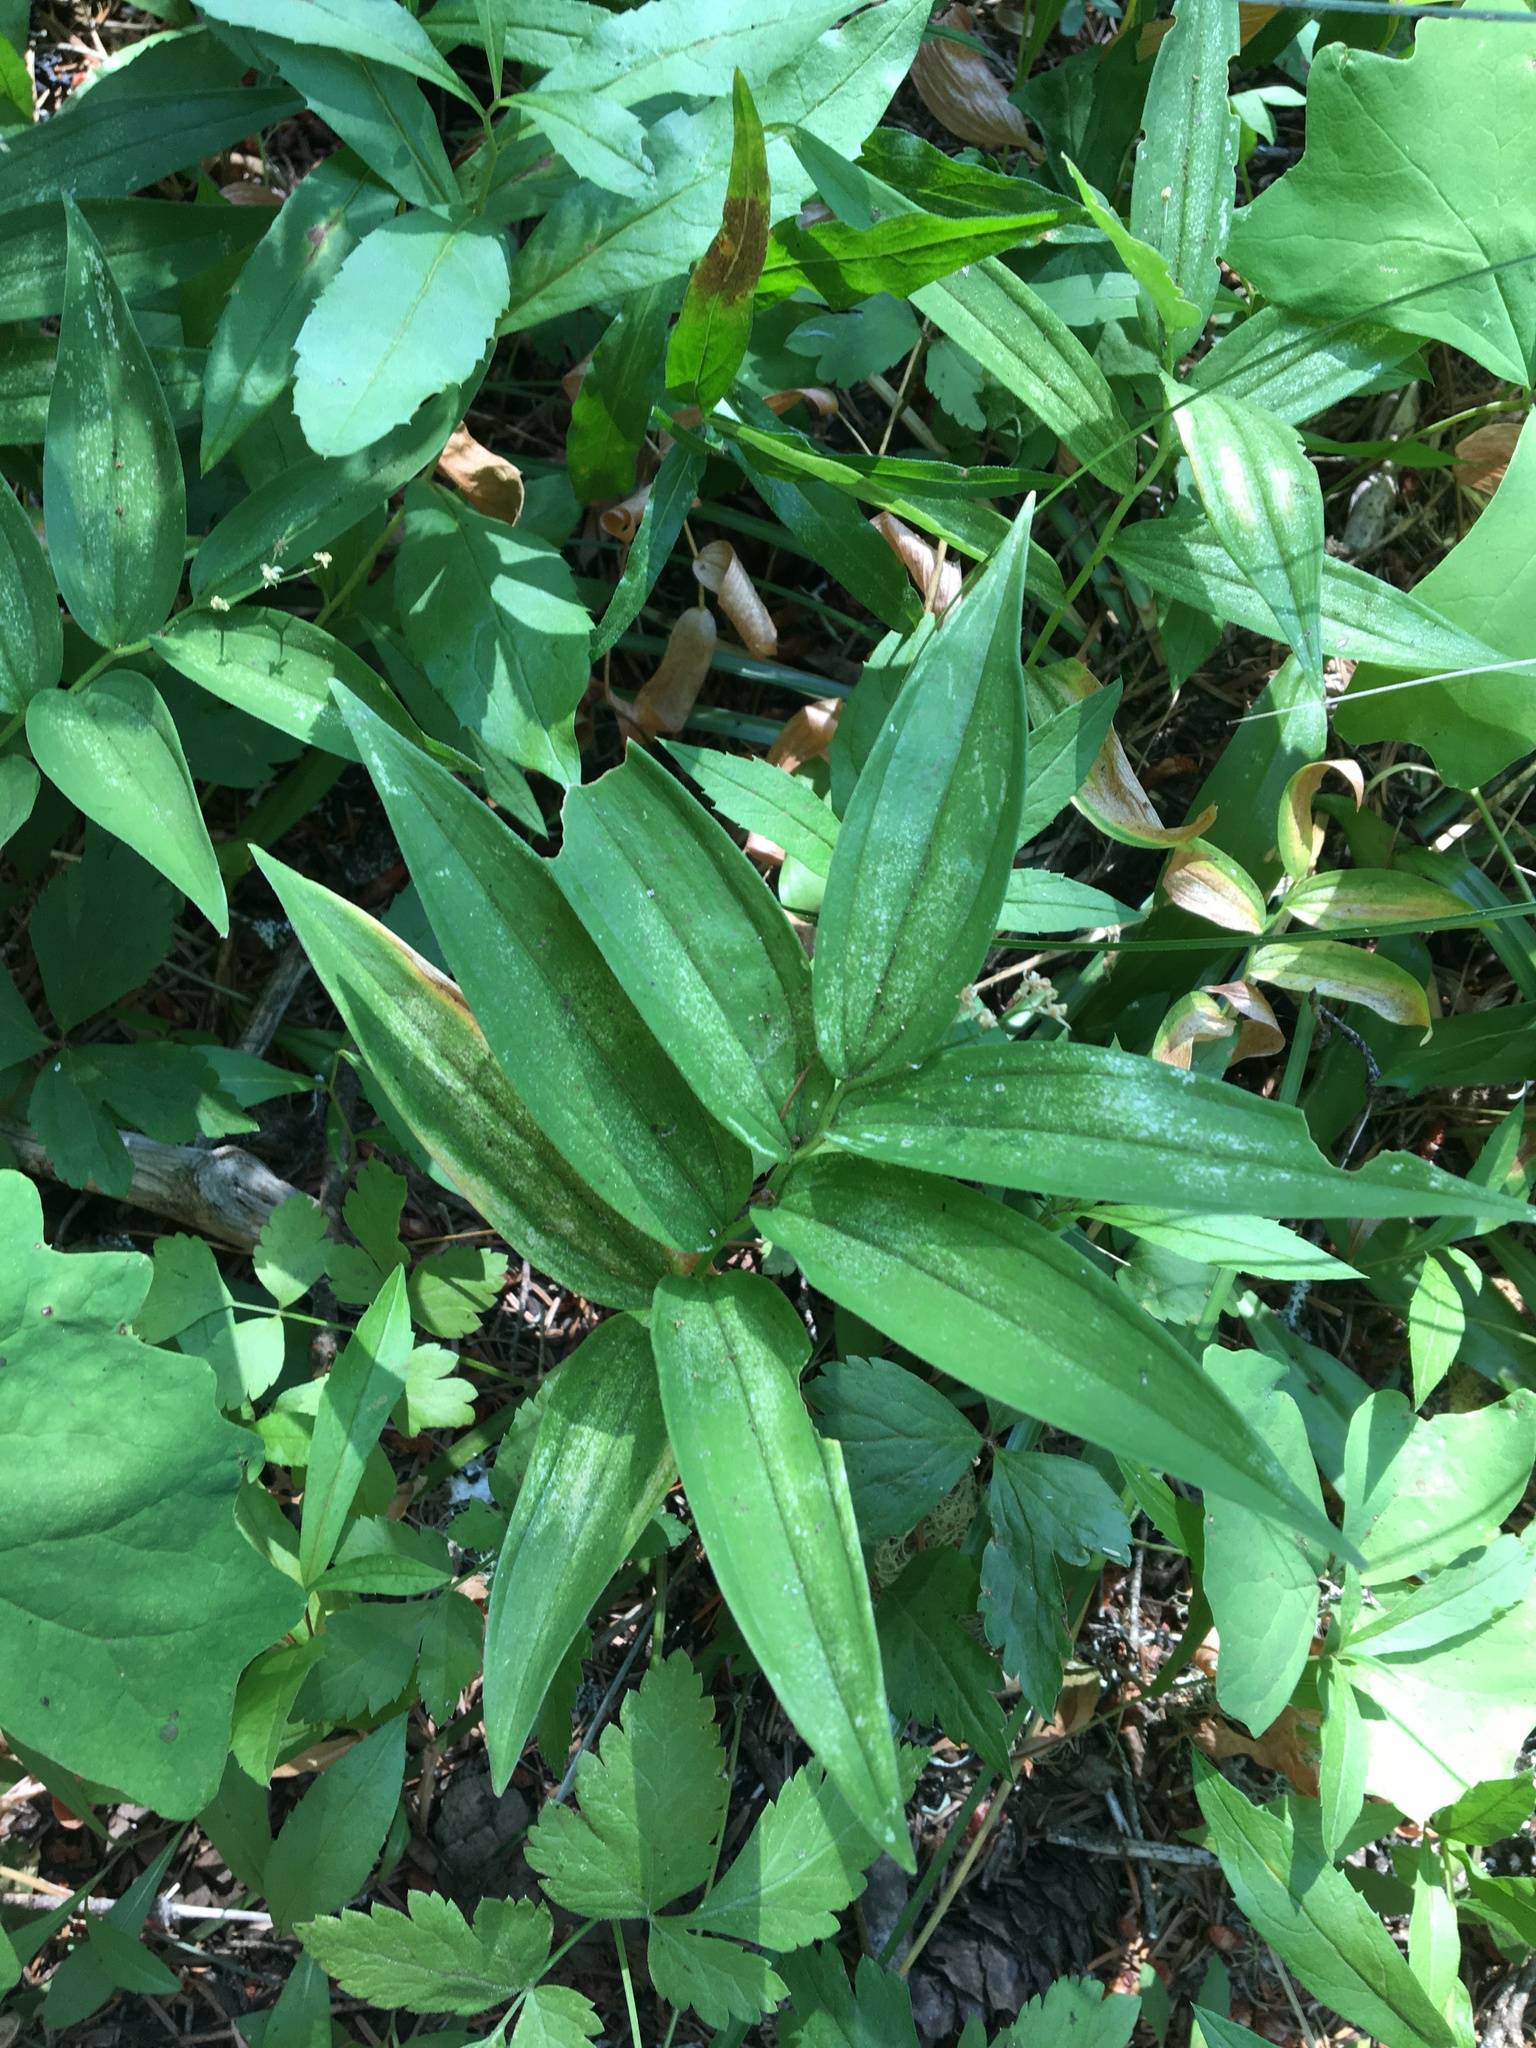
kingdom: Plantae
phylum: Tracheophyta
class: Liliopsida
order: Asparagales
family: Asparagaceae
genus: Maianthemum
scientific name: Maianthemum stellatum
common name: Little false solomon's seal
